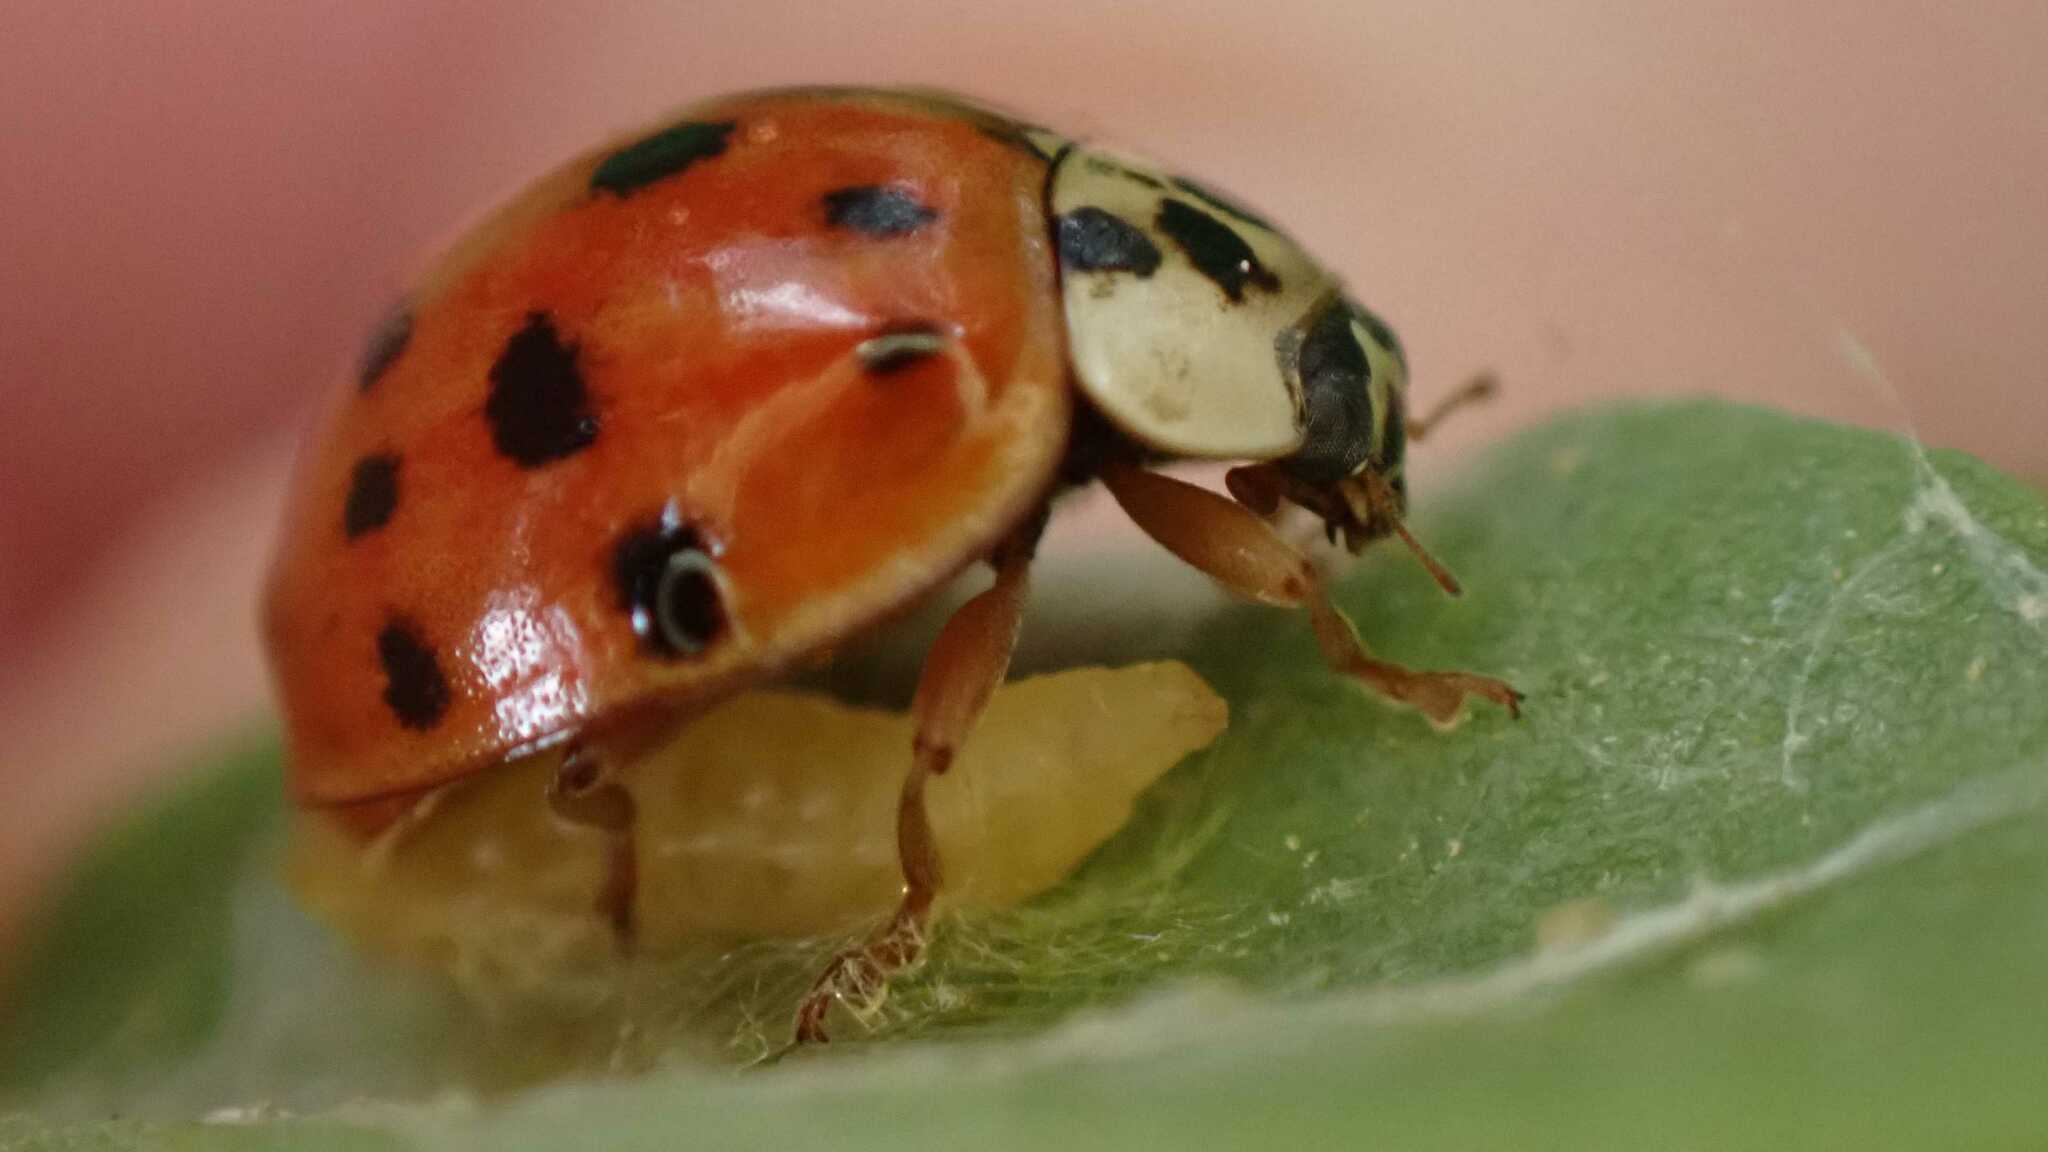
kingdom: Animalia
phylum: Arthropoda
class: Insecta
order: Coleoptera
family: Coccinellidae
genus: Harmonia
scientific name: Harmonia axyridis
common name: Harlequin ladybird
